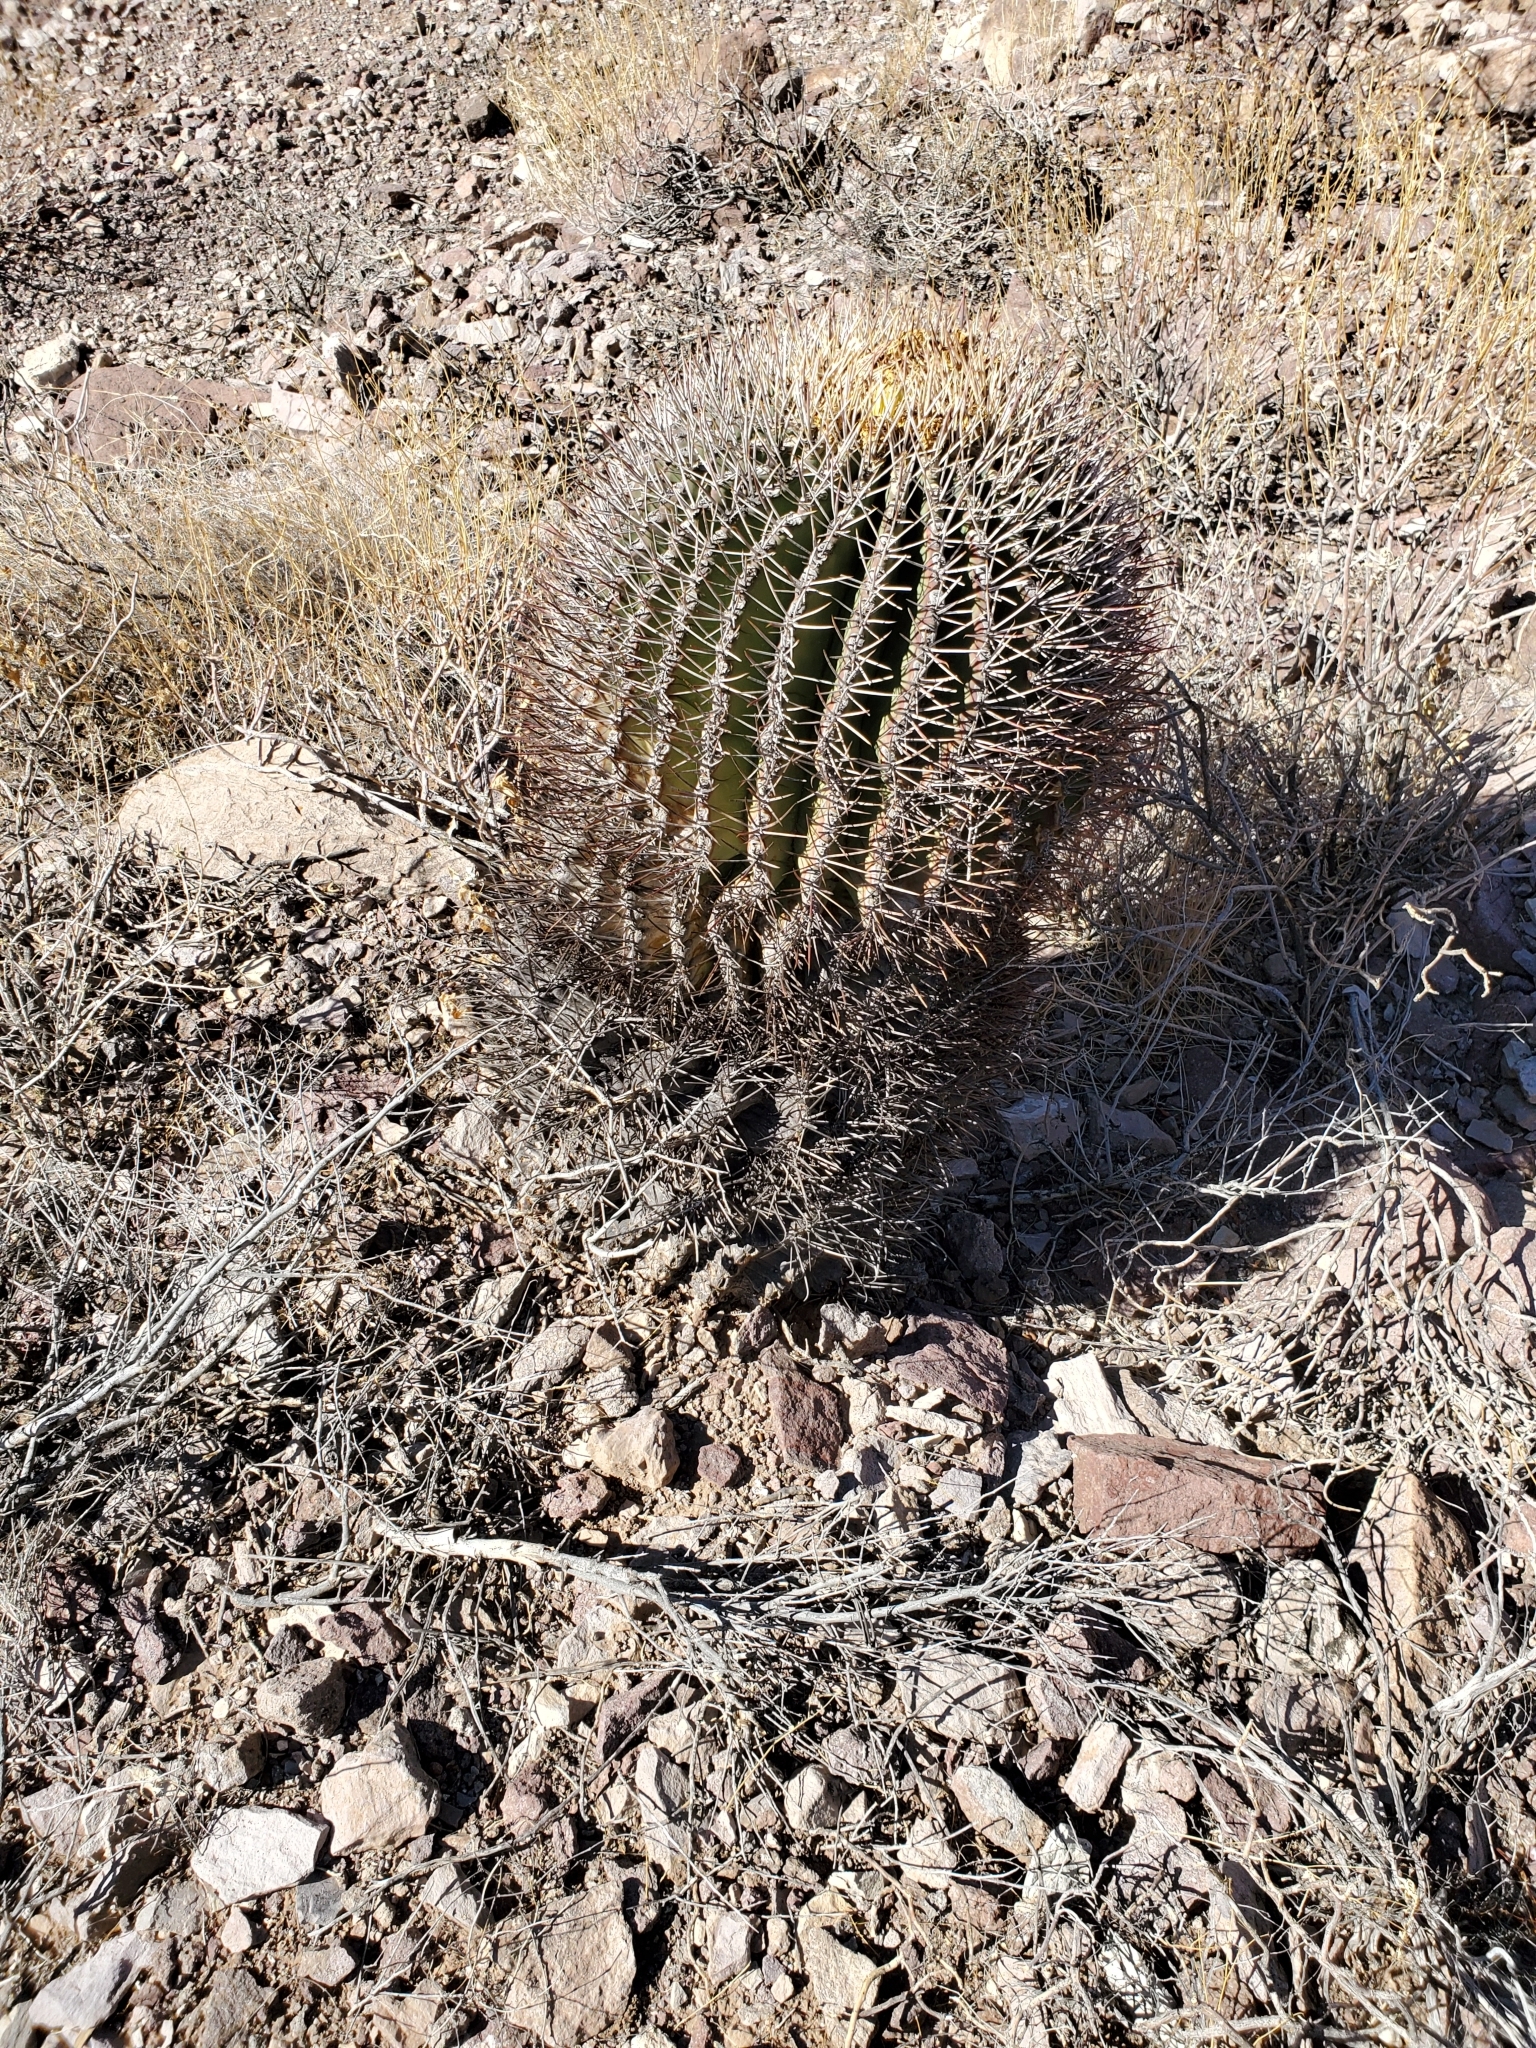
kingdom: Plantae
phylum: Tracheophyta
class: Magnoliopsida
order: Caryophyllales
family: Cactaceae
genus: Ferocactus
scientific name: Ferocactus emoryi
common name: Emory's barrel cactus
